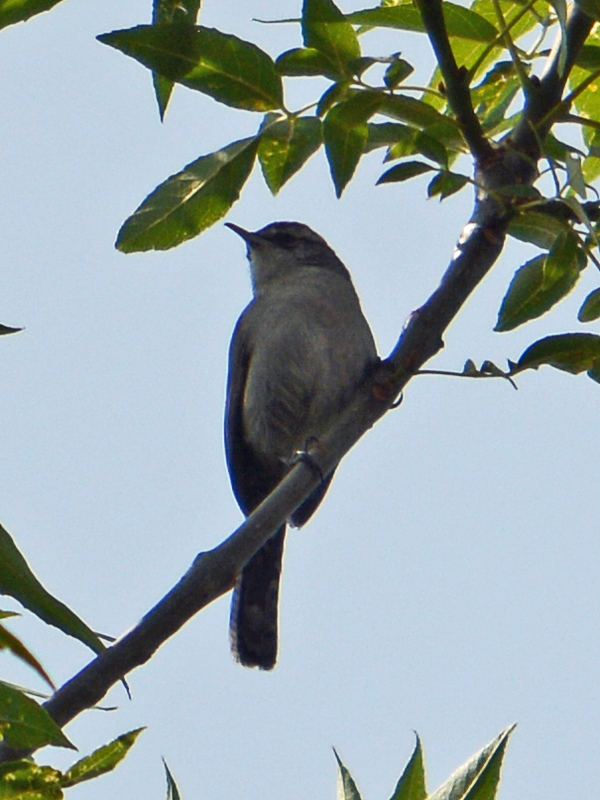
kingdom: Animalia
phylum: Chordata
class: Aves
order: Passeriformes
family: Troglodytidae
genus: Thryomanes
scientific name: Thryomanes bewickii
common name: Bewick's wren
